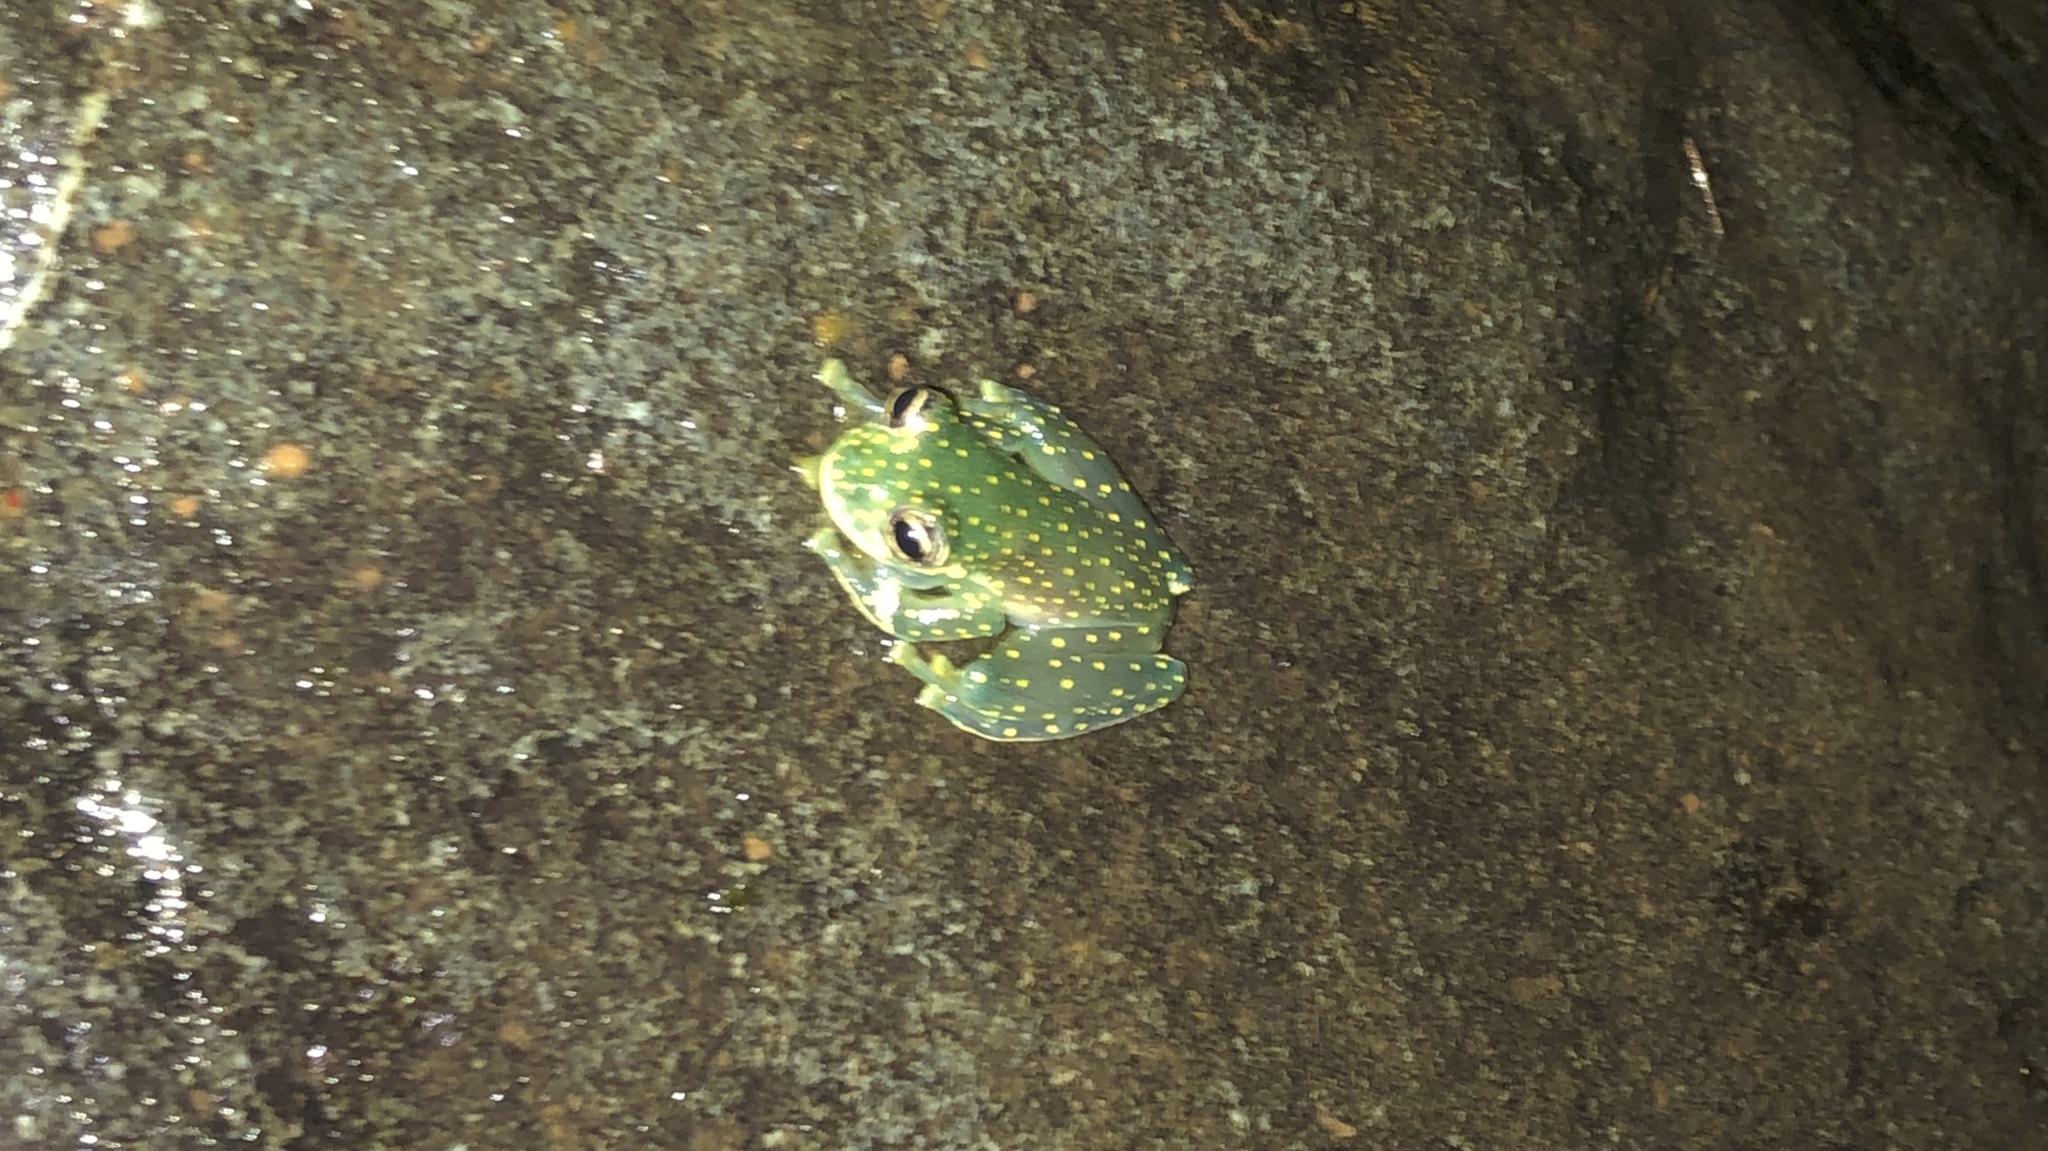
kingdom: Animalia
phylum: Chordata
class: Amphibia
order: Anura
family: Centrolenidae
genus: Sachatamia
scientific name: Sachatamia albomaculata
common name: Rana de cristal de cascada
